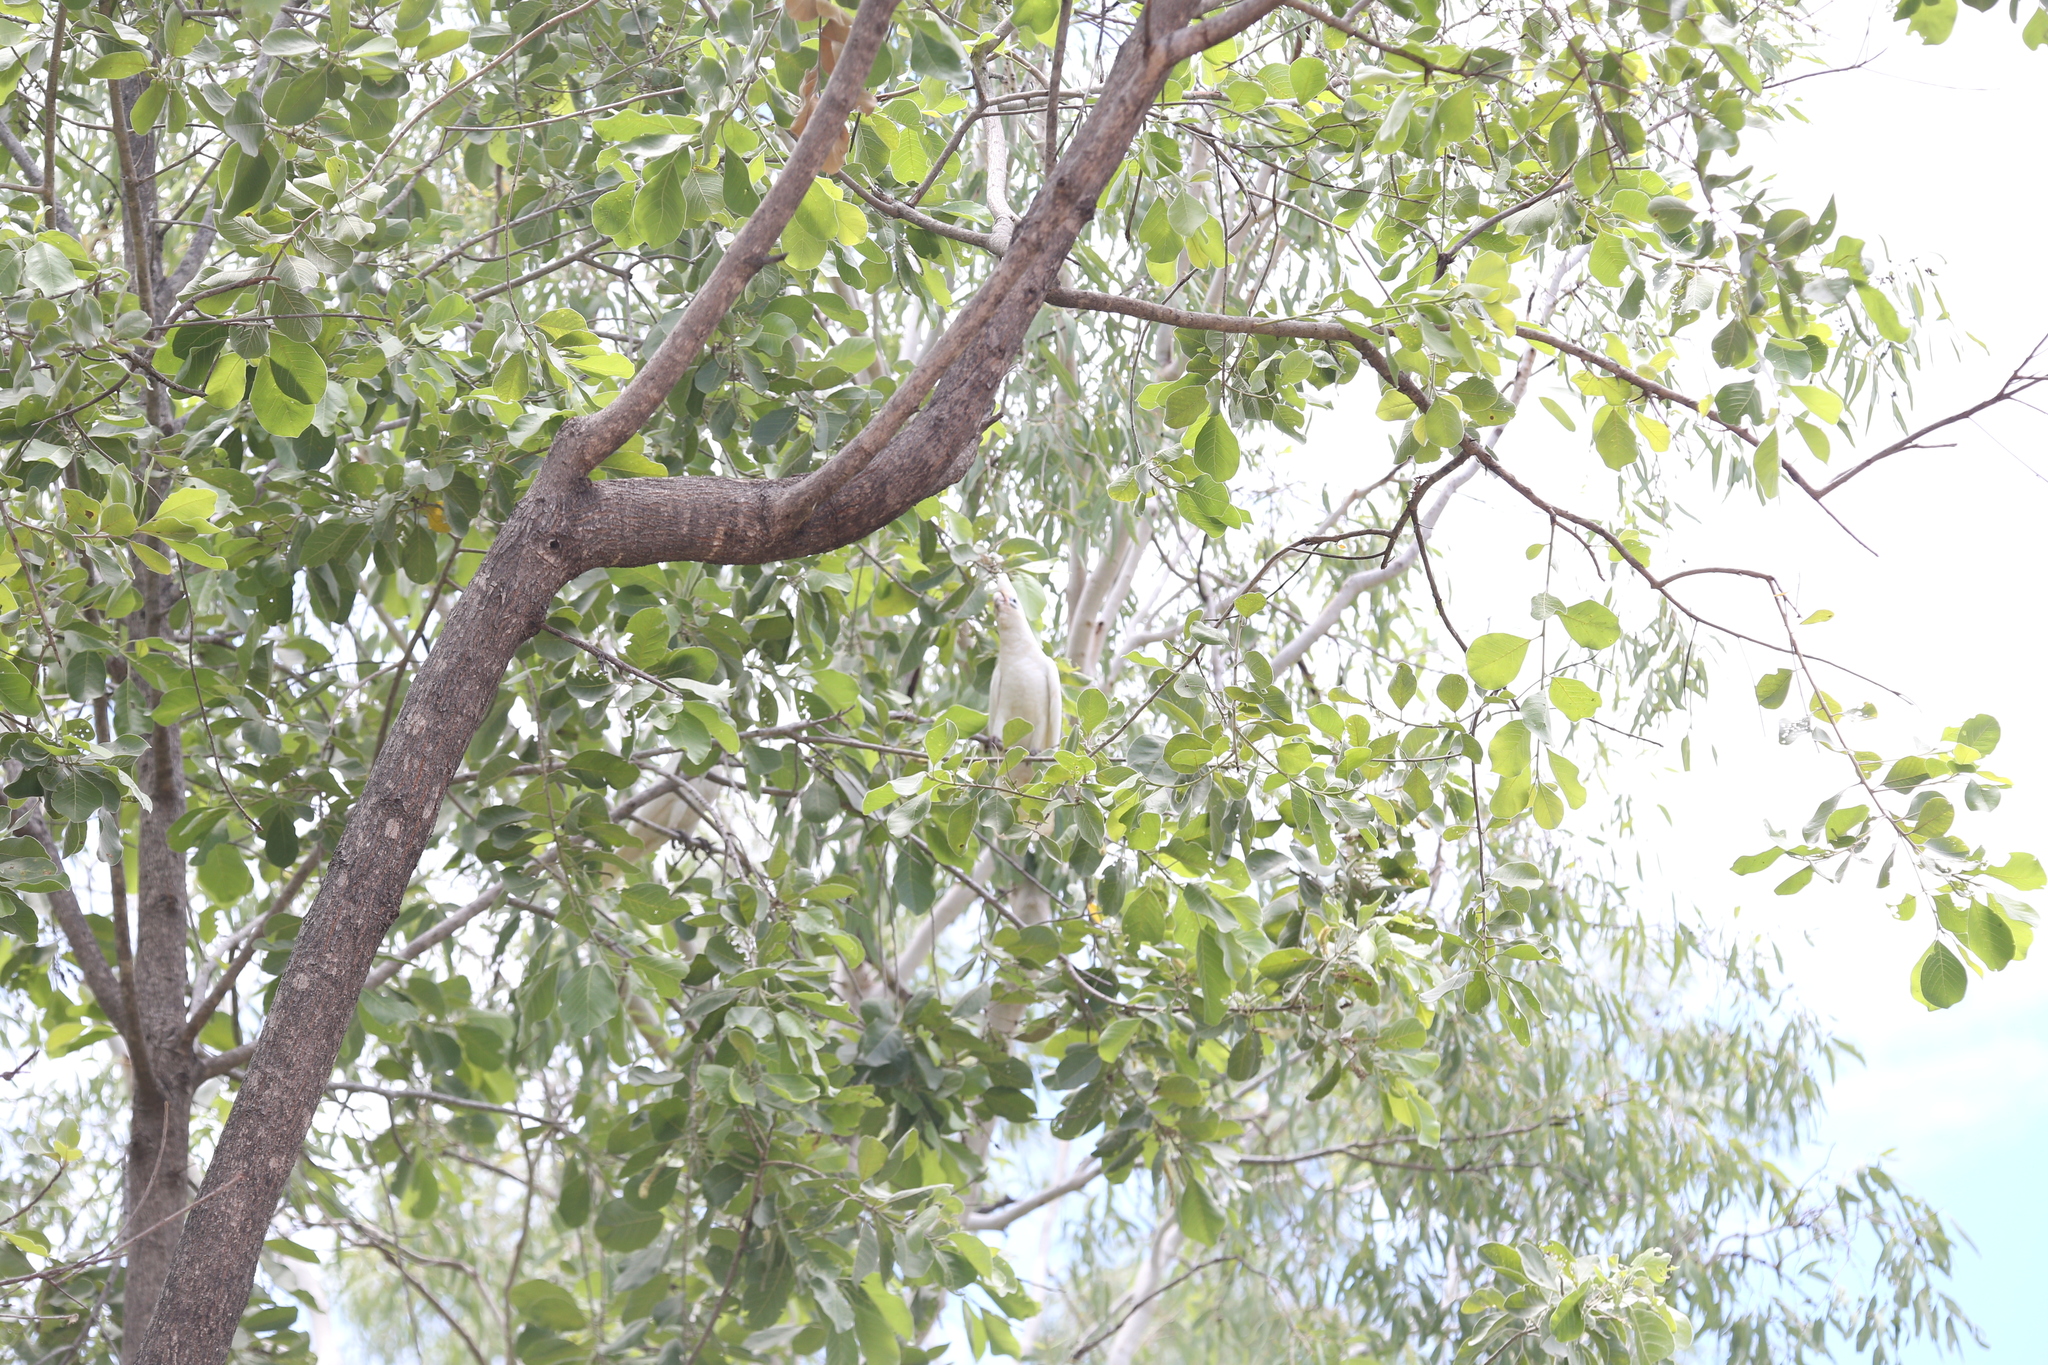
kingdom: Animalia
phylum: Chordata
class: Aves
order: Psittaciformes
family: Psittacidae
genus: Cacatua
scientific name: Cacatua sanguinea
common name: Little corella
